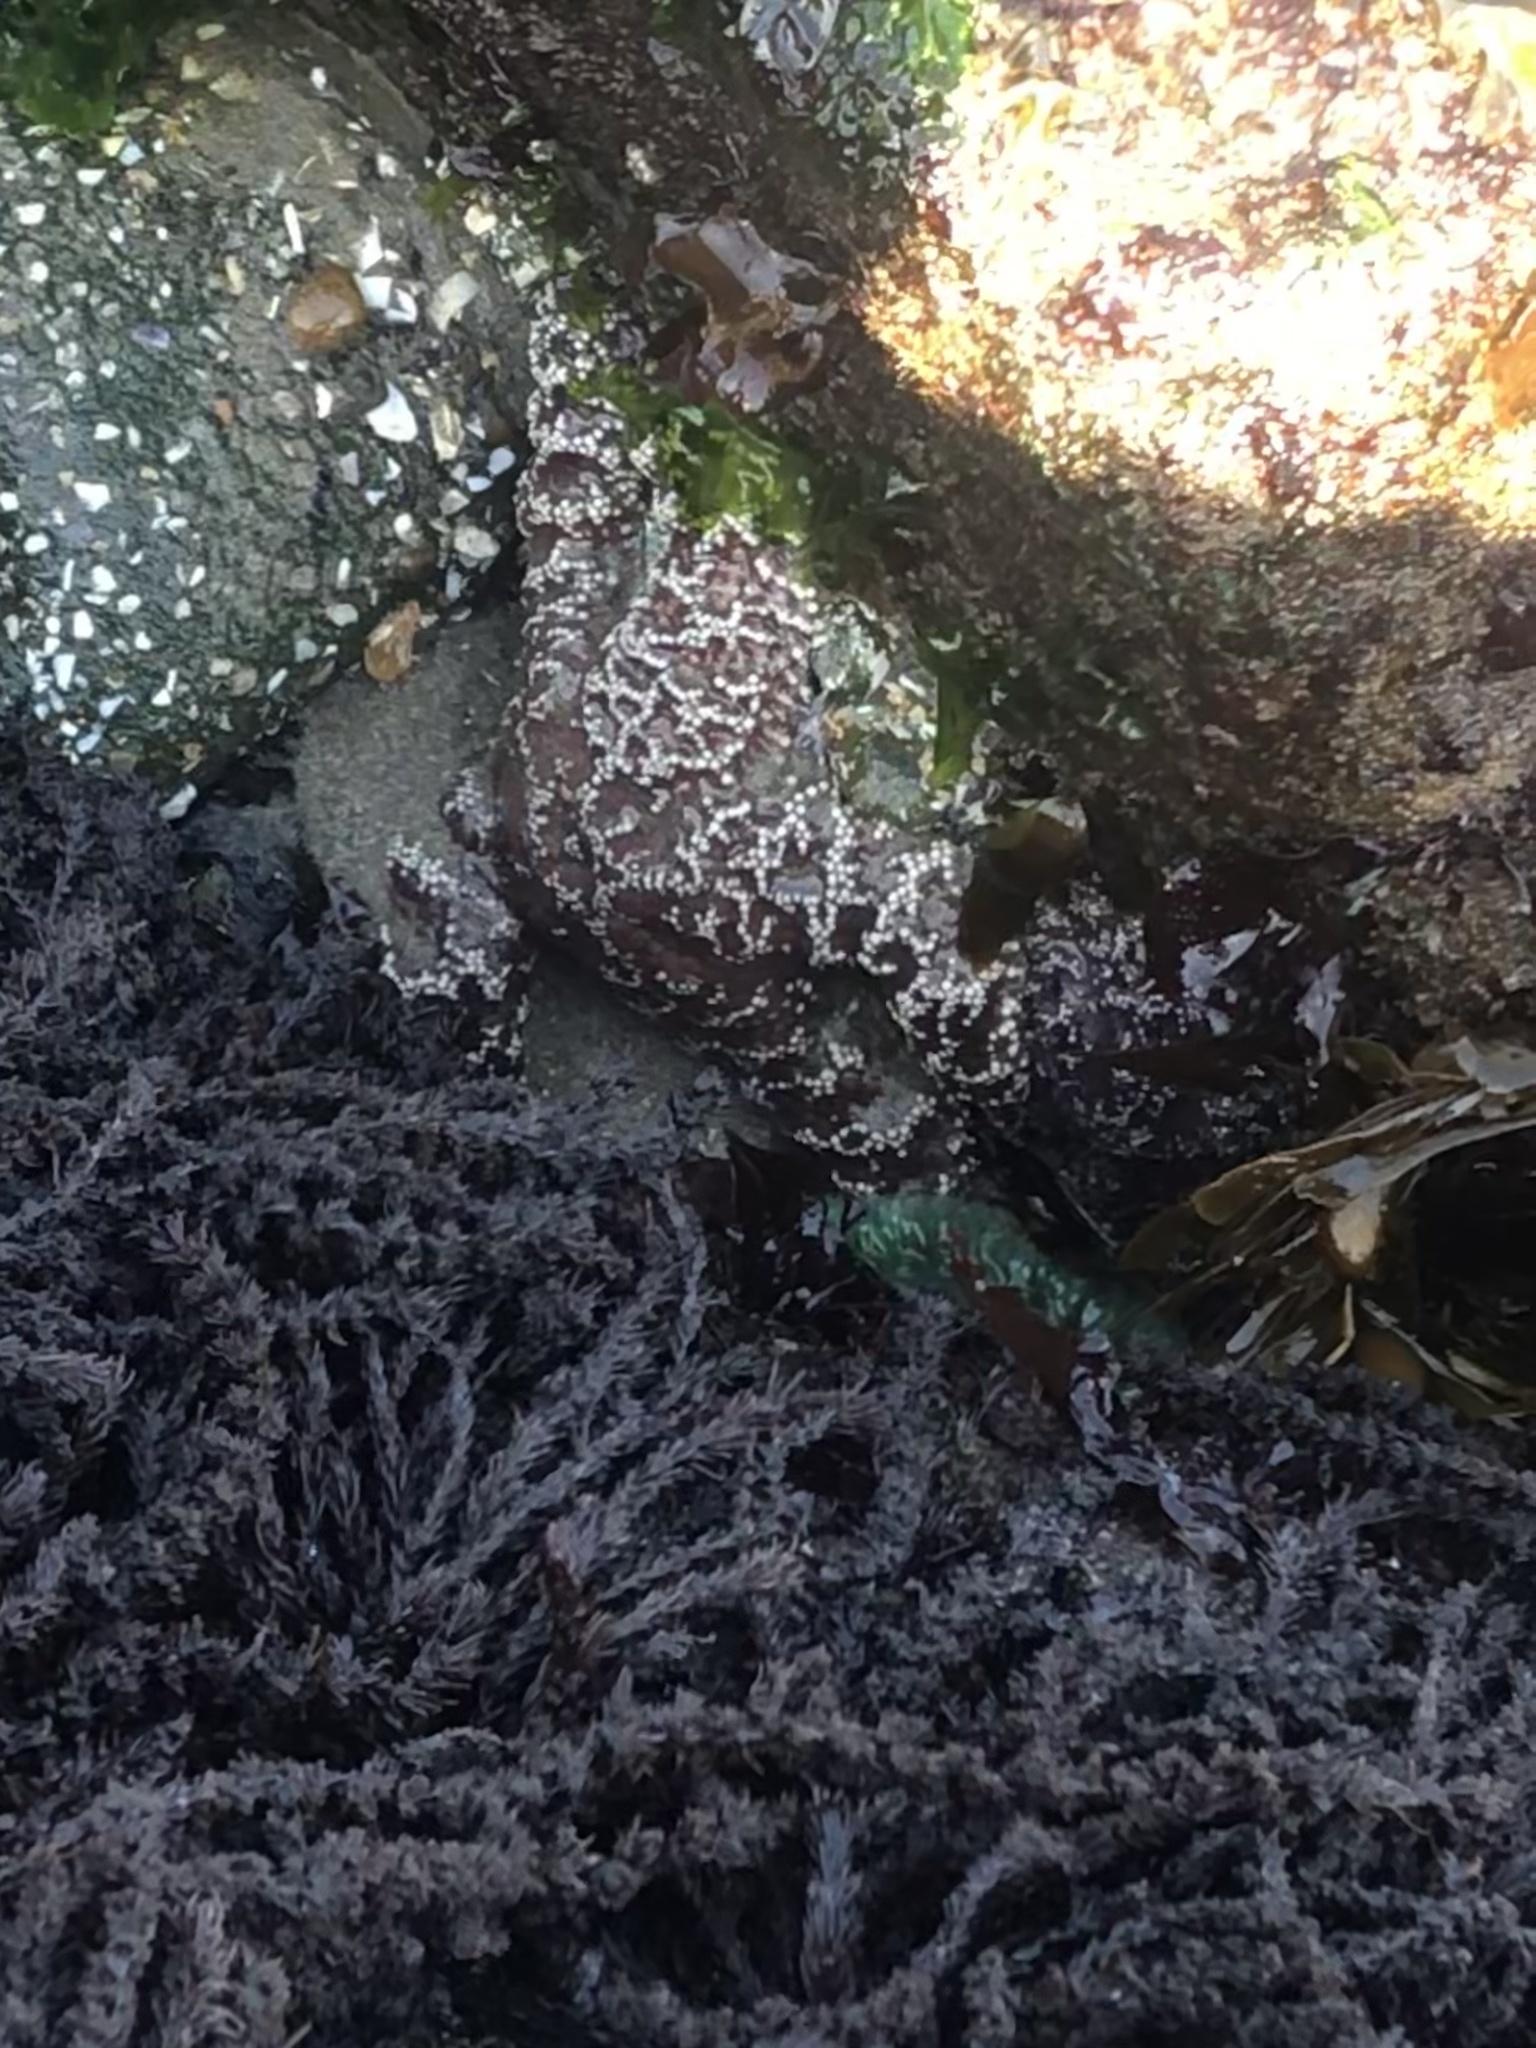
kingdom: Animalia
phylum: Echinodermata
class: Asteroidea
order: Forcipulatida
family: Asteriidae
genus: Pisaster
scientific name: Pisaster ochraceus
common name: Ochre stars
